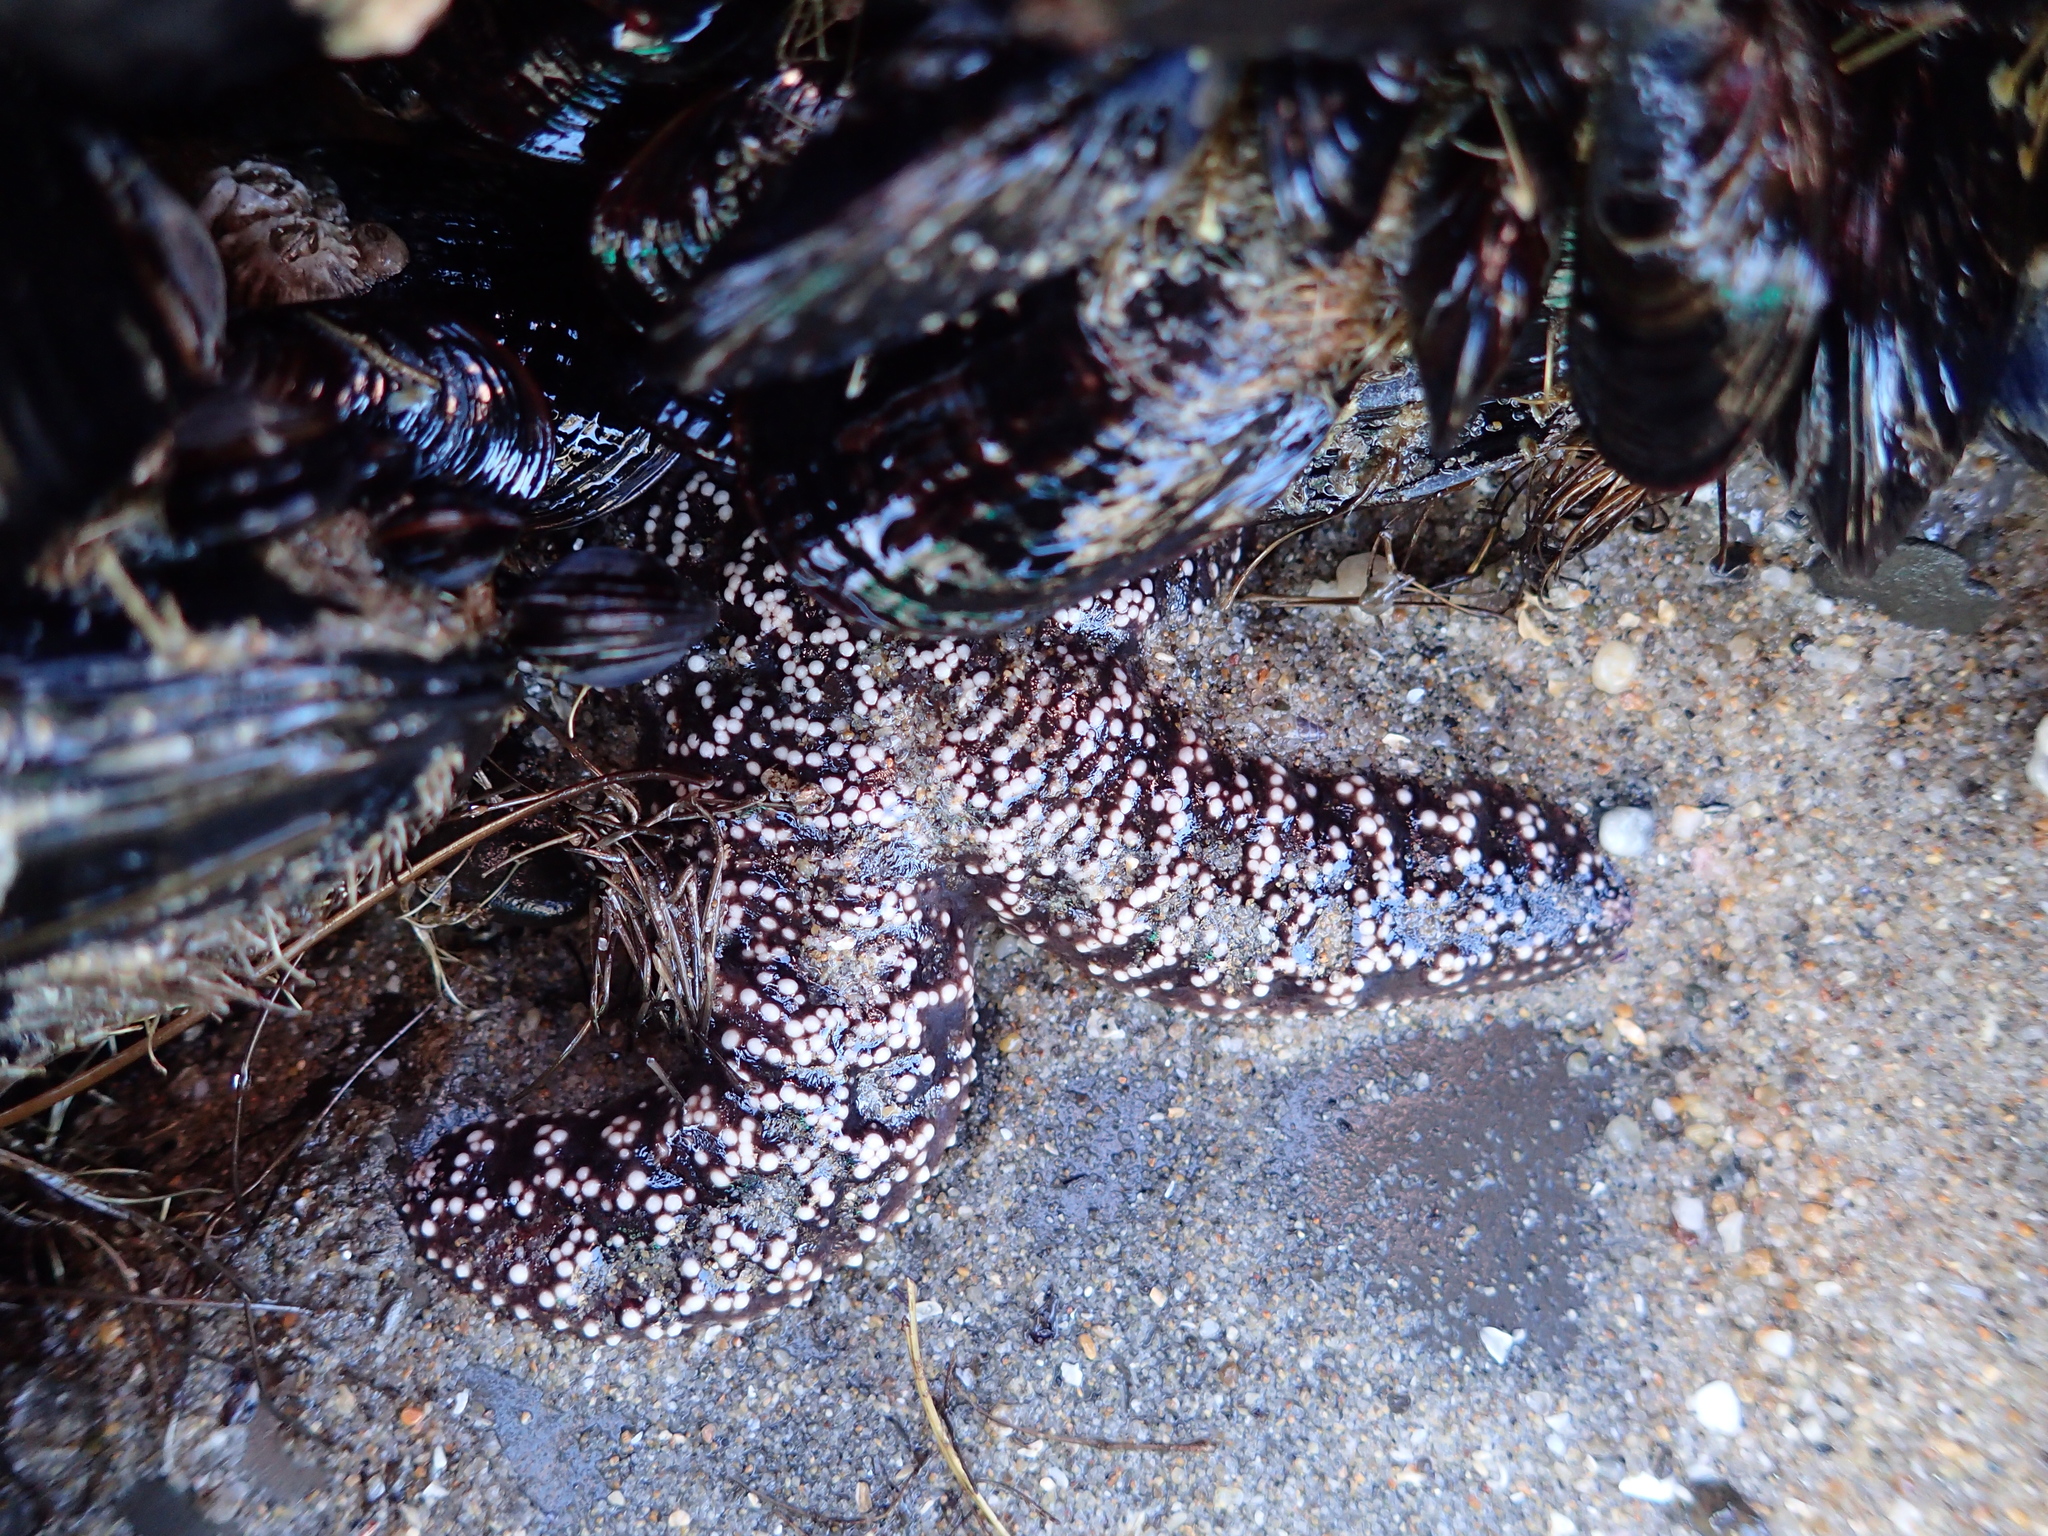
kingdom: Animalia
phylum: Echinodermata
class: Asteroidea
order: Forcipulatida
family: Asteriidae
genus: Pisaster
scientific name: Pisaster ochraceus
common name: Ochre stars
